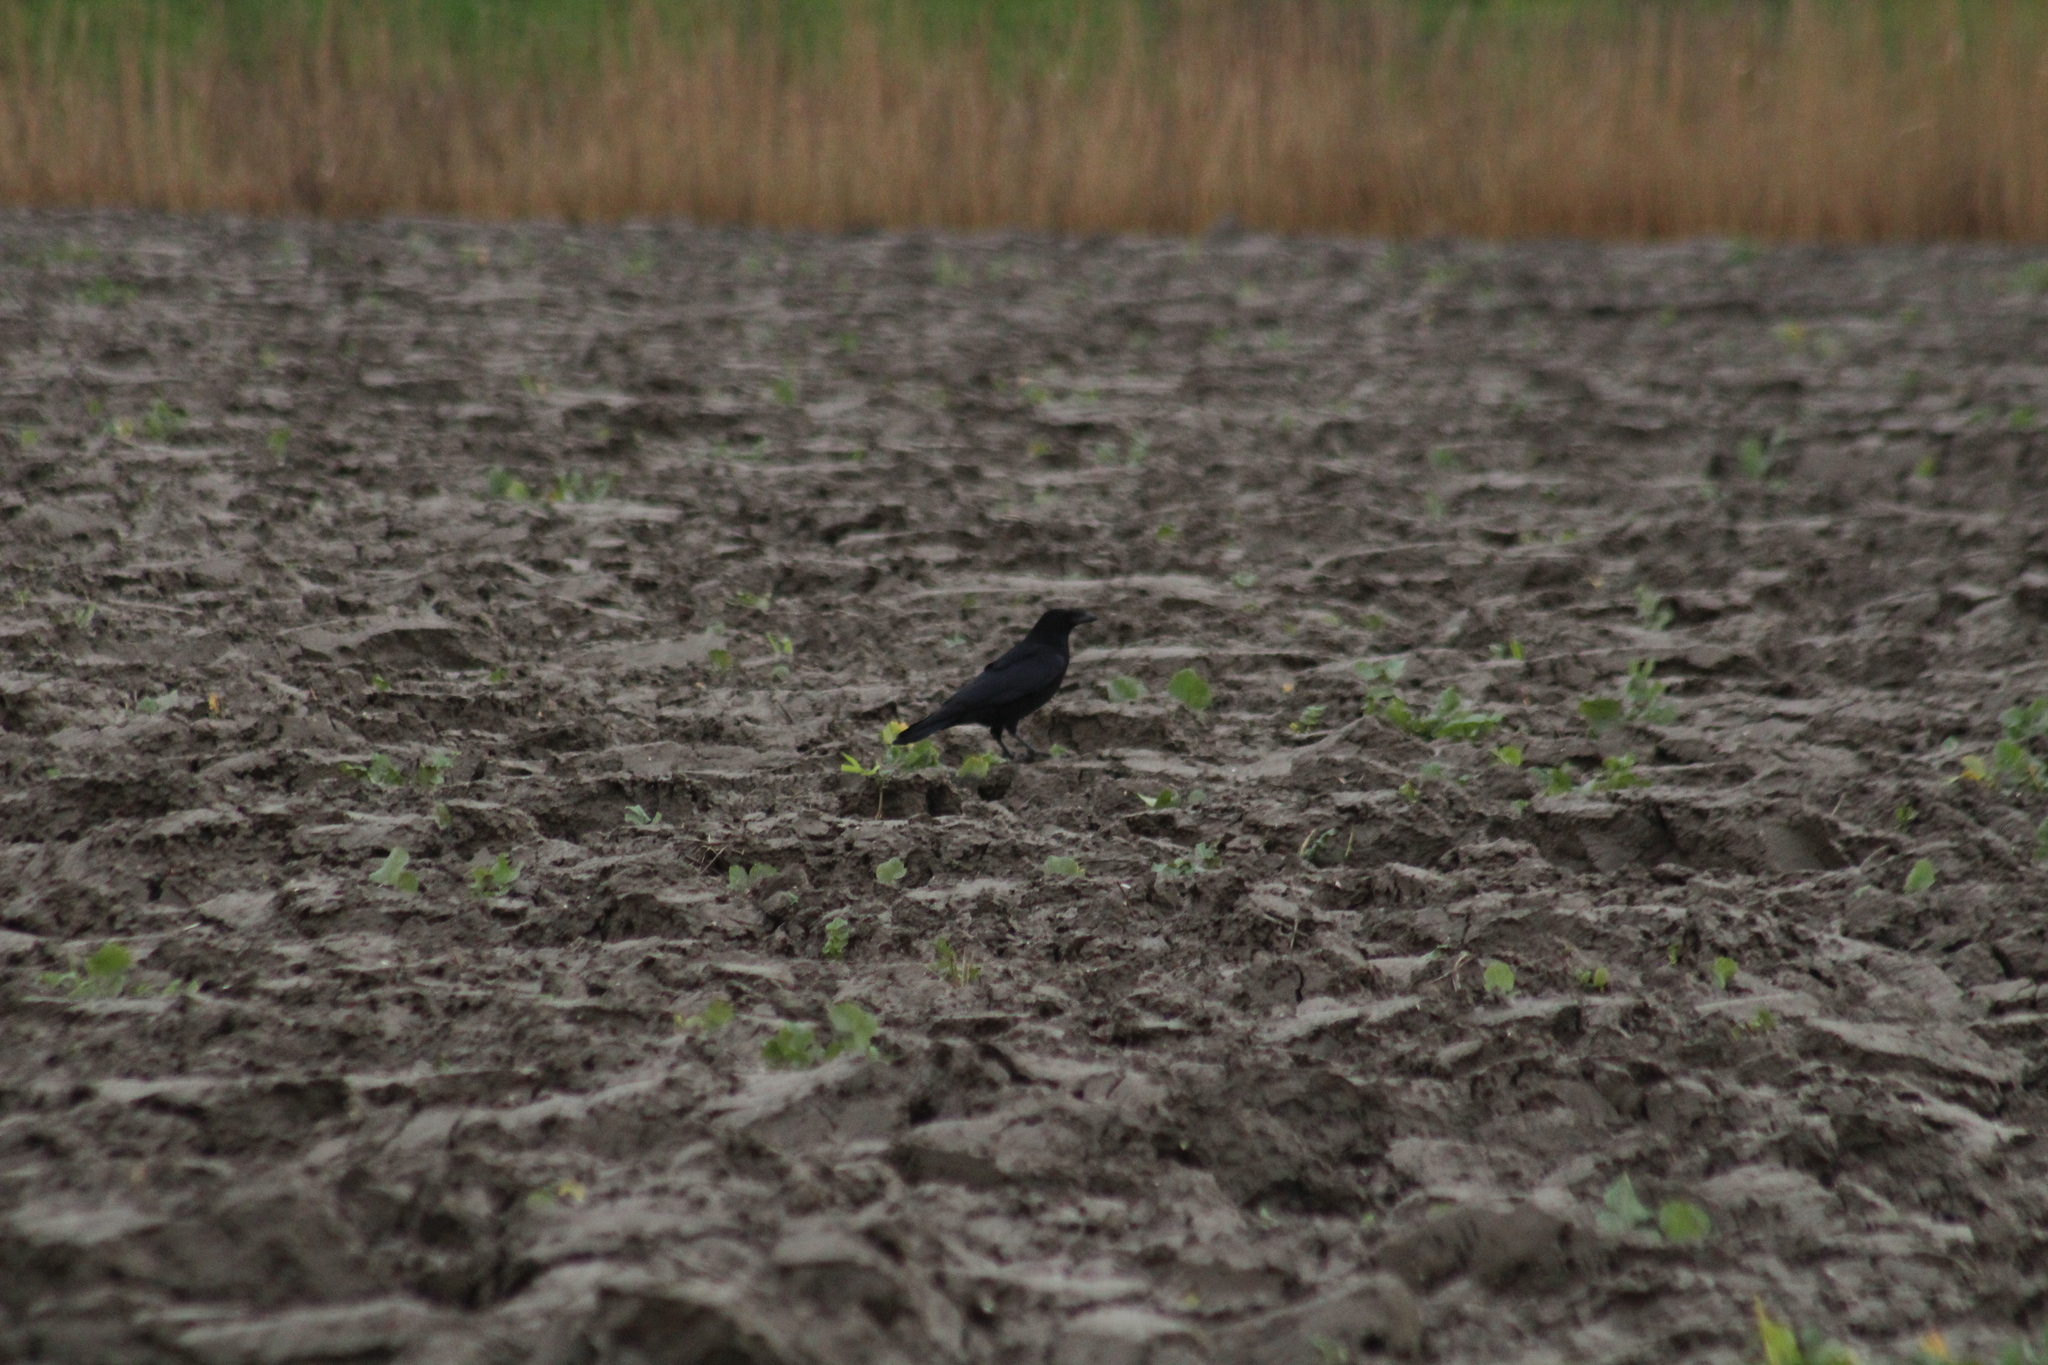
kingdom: Animalia
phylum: Chordata
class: Aves
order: Passeriformes
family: Corvidae
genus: Corvus
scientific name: Corvus corone
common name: Carrion crow
